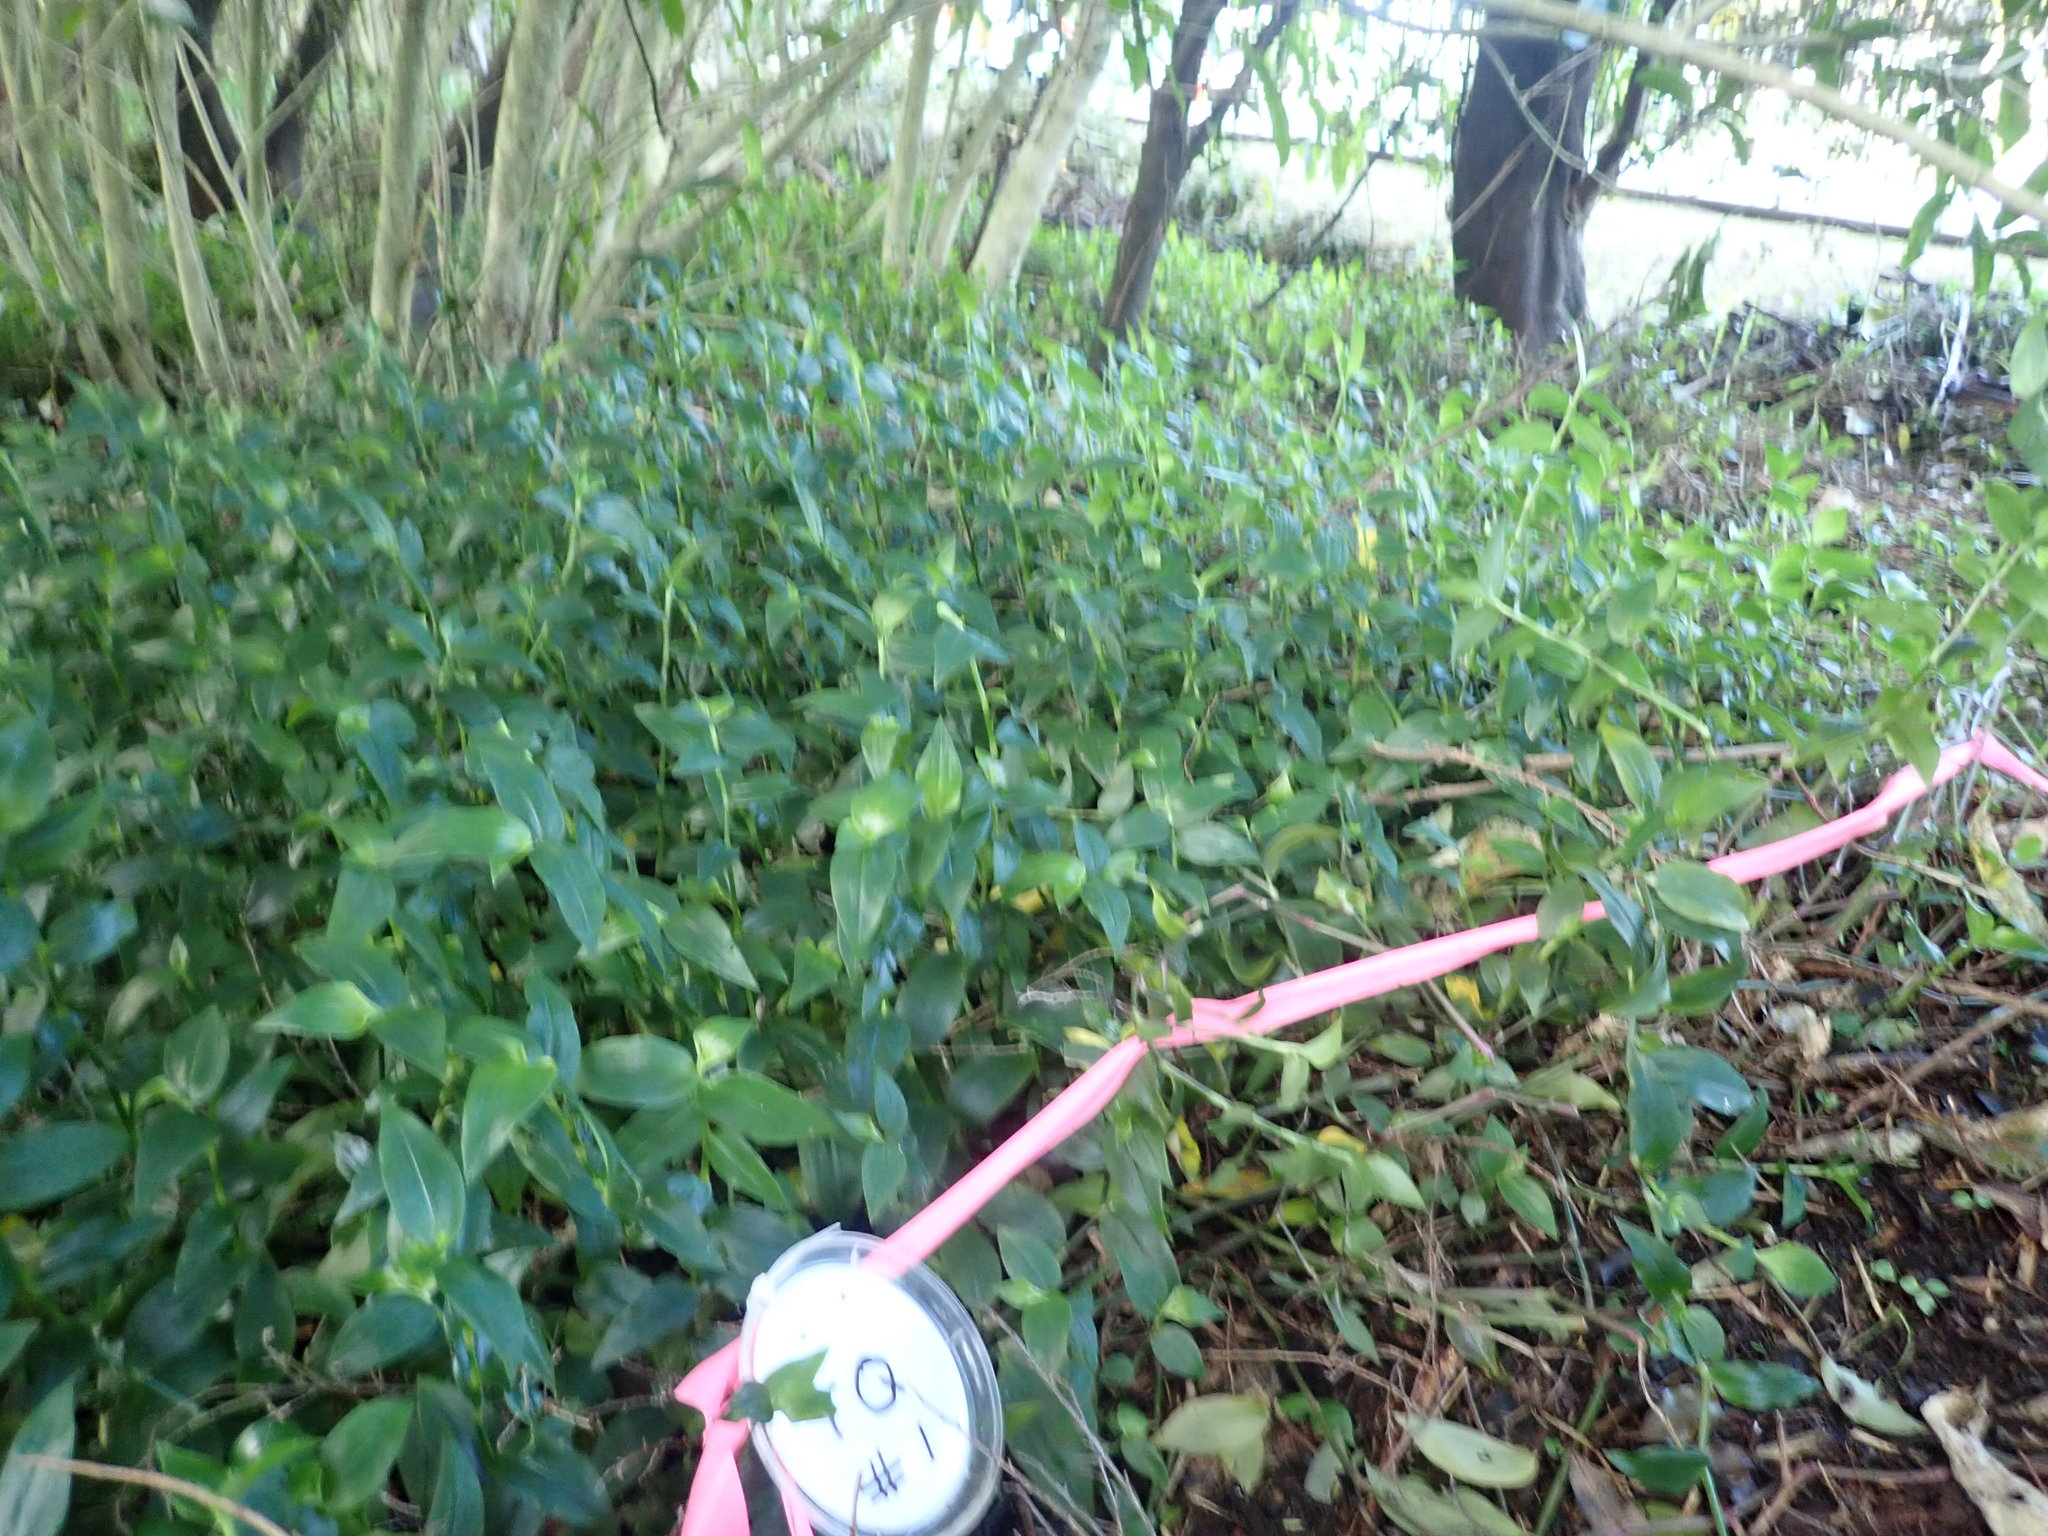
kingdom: Plantae
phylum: Tracheophyta
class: Liliopsida
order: Commelinales
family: Commelinaceae
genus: Tradescantia
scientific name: Tradescantia fluminensis
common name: Wandering-jew
